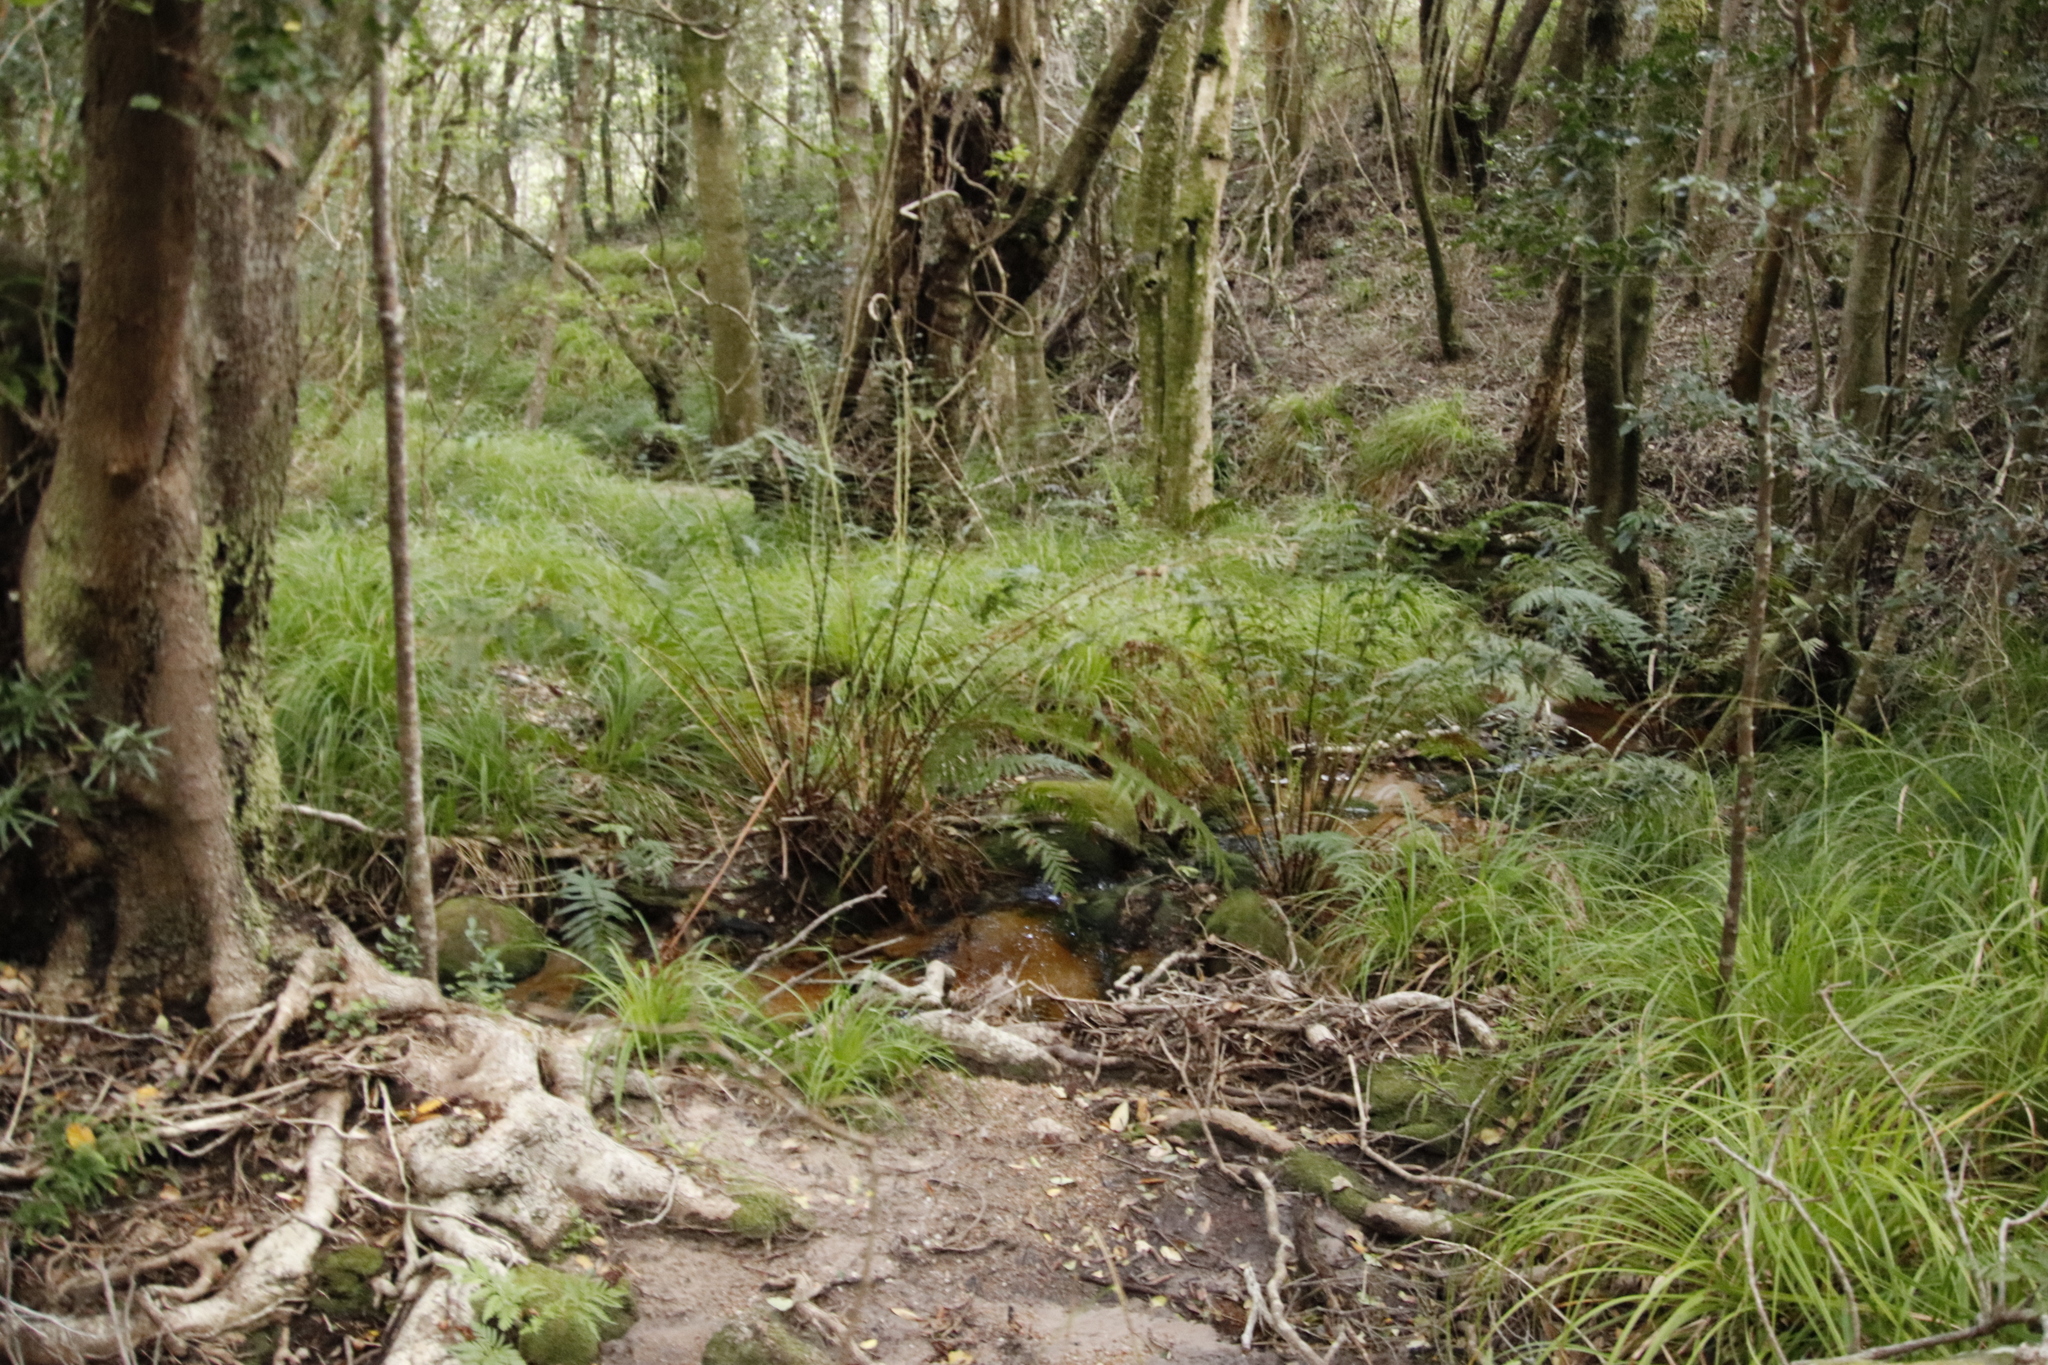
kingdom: Plantae
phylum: Tracheophyta
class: Polypodiopsida
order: Osmundales
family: Osmundaceae
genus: Todea
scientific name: Todea barbara
